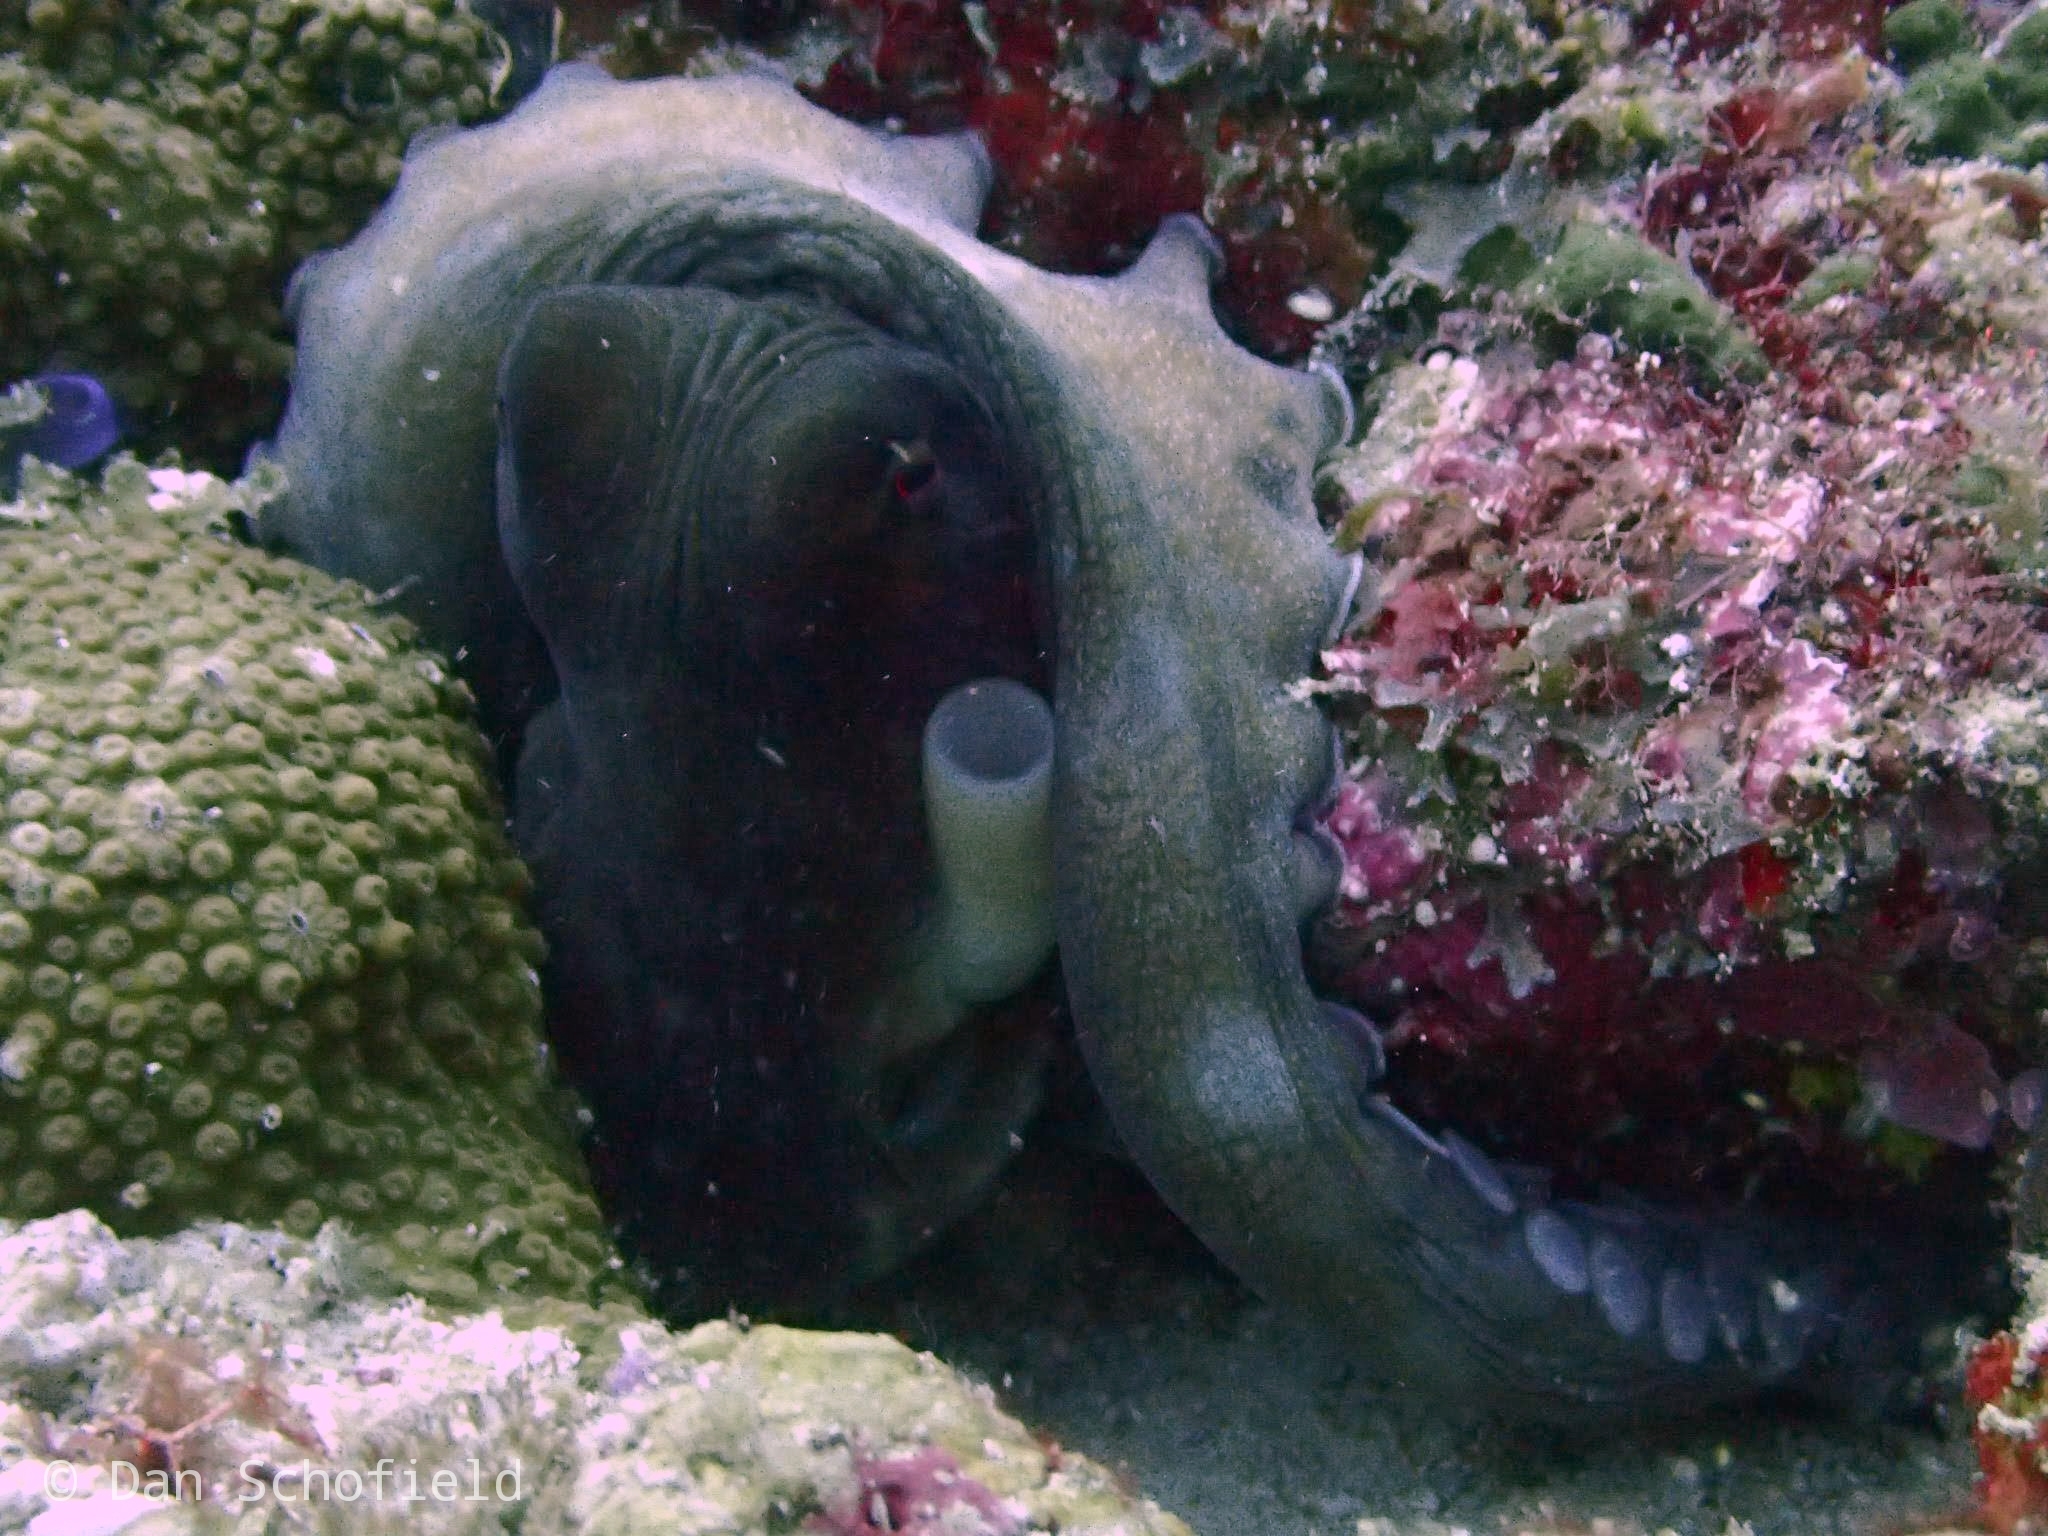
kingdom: Animalia
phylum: Mollusca
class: Cephalopoda
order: Octopoda
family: Octopodidae
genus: Octopus
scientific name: Octopus cyanea
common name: Cyane's octopus
